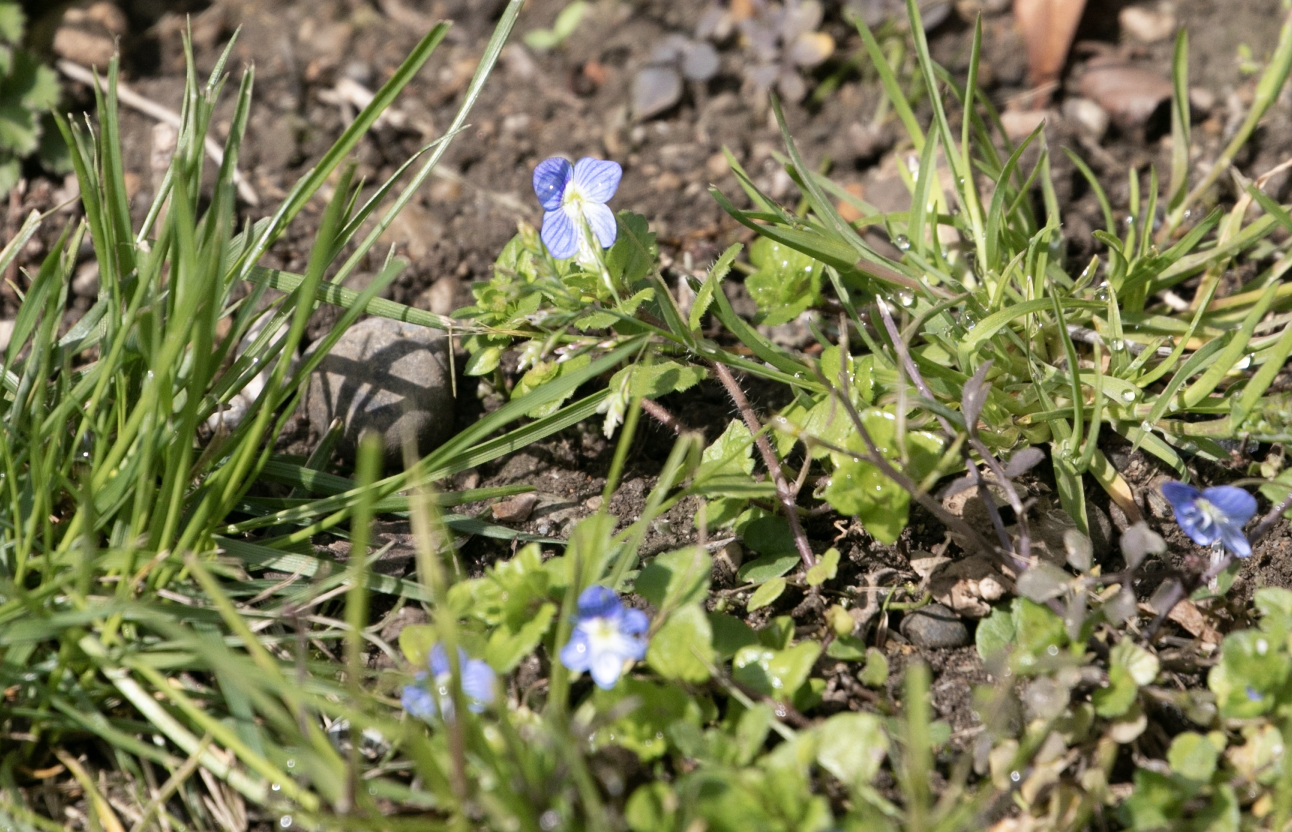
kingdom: Plantae
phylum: Tracheophyta
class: Magnoliopsida
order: Lamiales
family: Plantaginaceae
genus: Veronica
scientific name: Veronica persica
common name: Common field-speedwell
